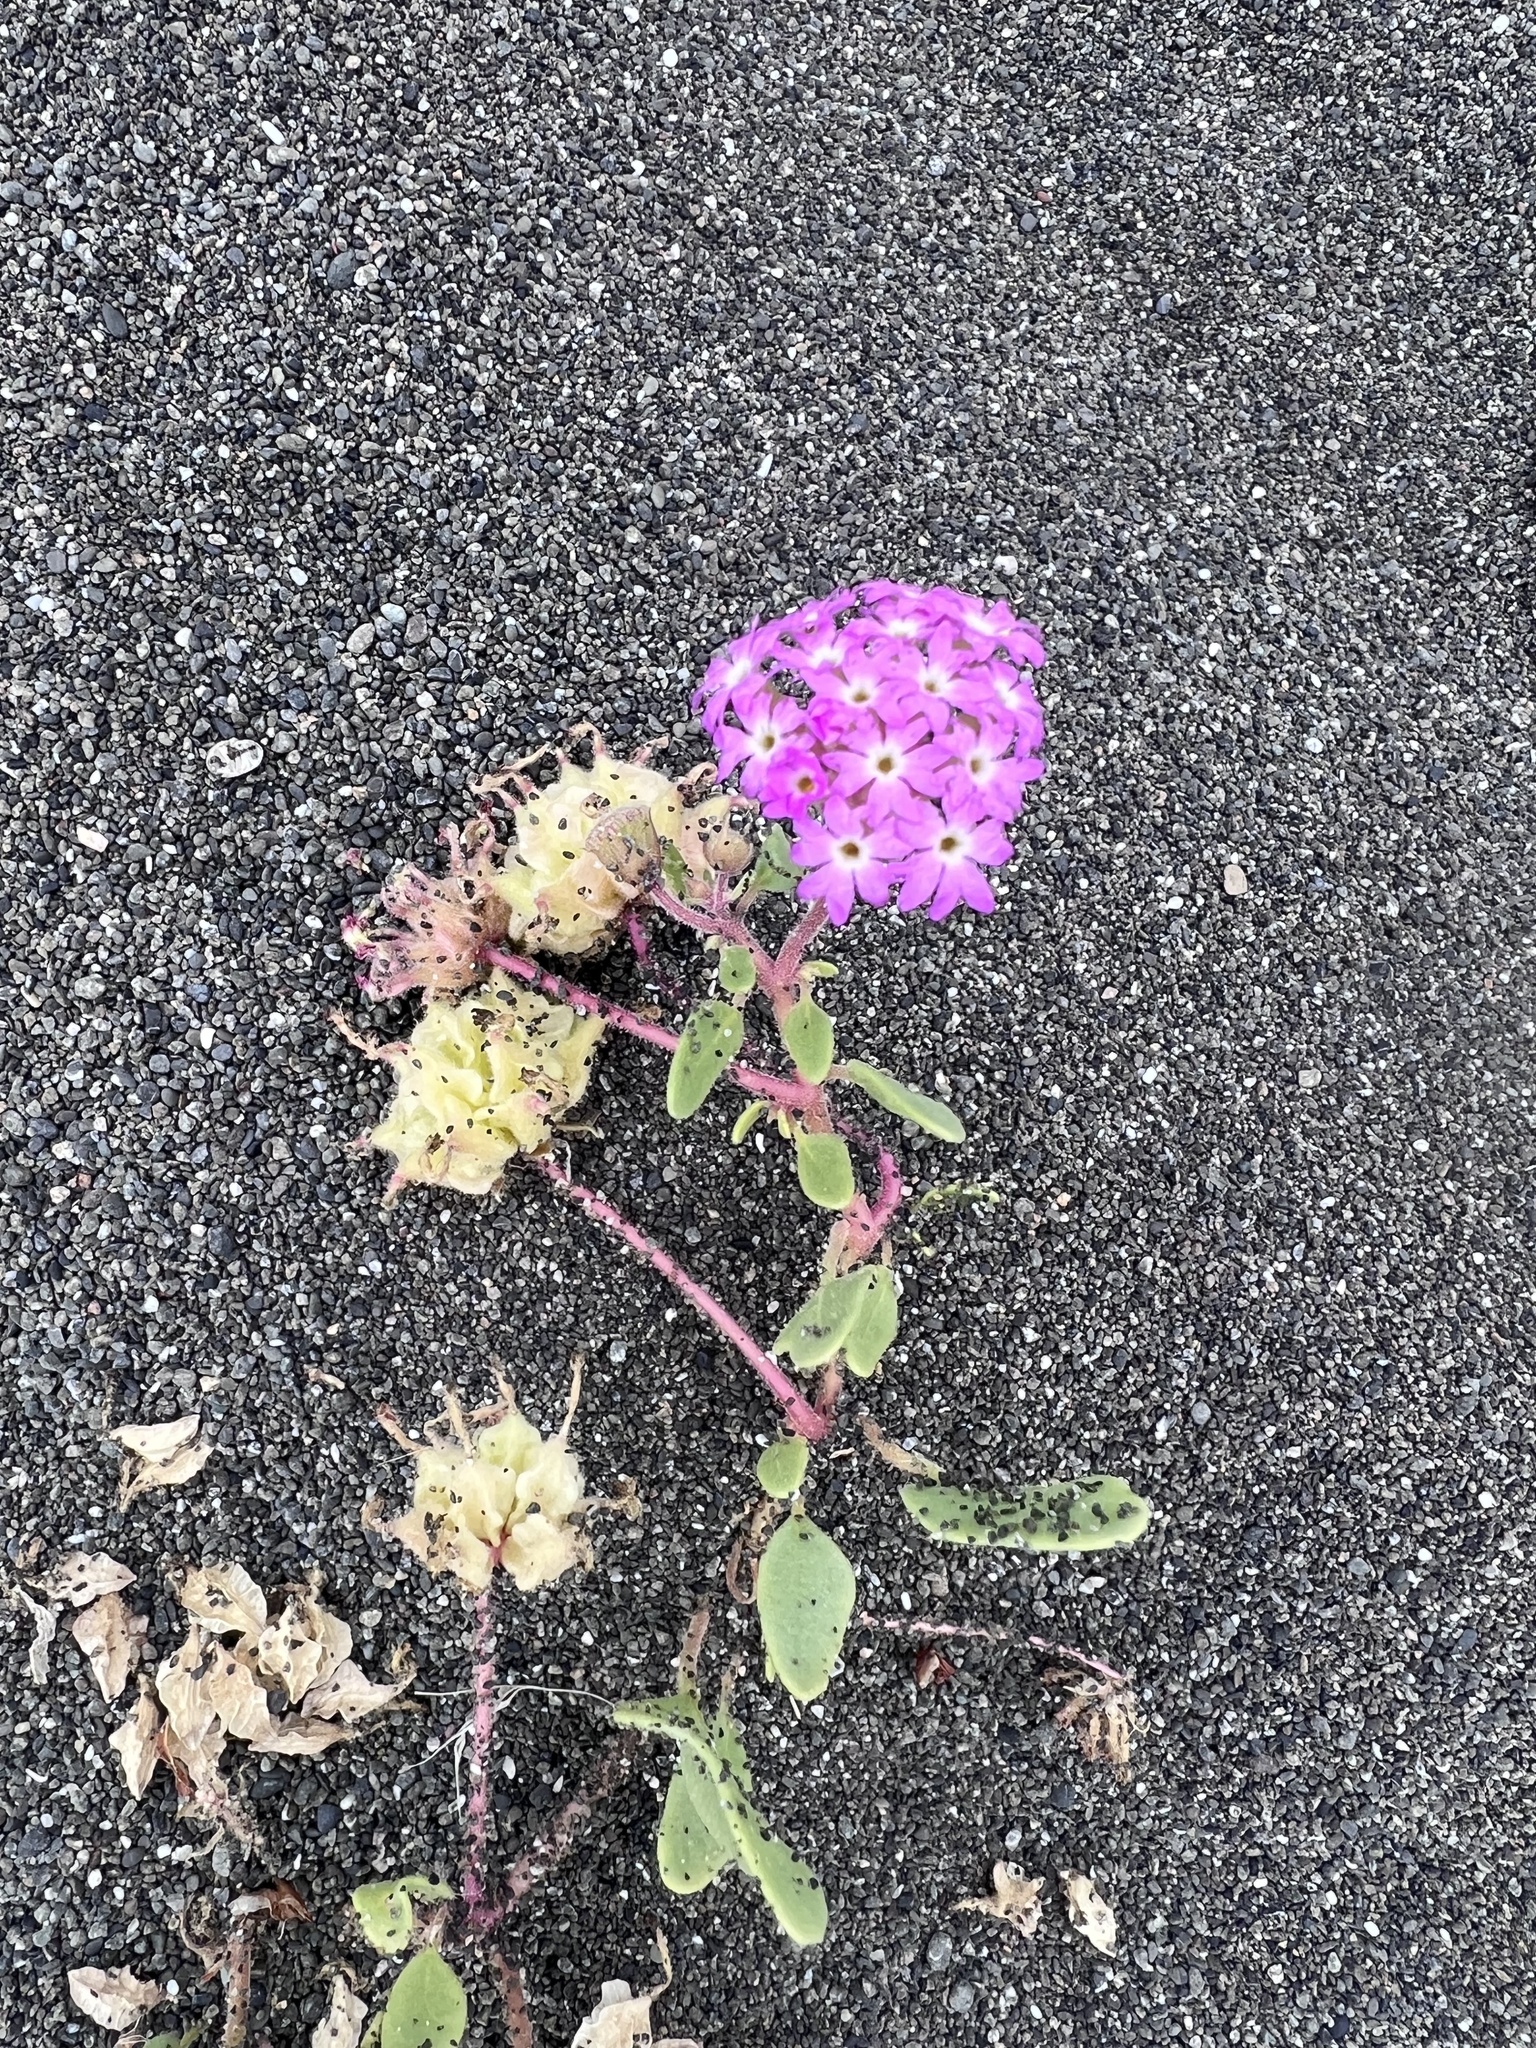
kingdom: Plantae
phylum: Tracheophyta
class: Magnoliopsida
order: Caryophyllales
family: Nyctaginaceae
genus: Abronia
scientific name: Abronia umbellata
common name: Sand-verbena
